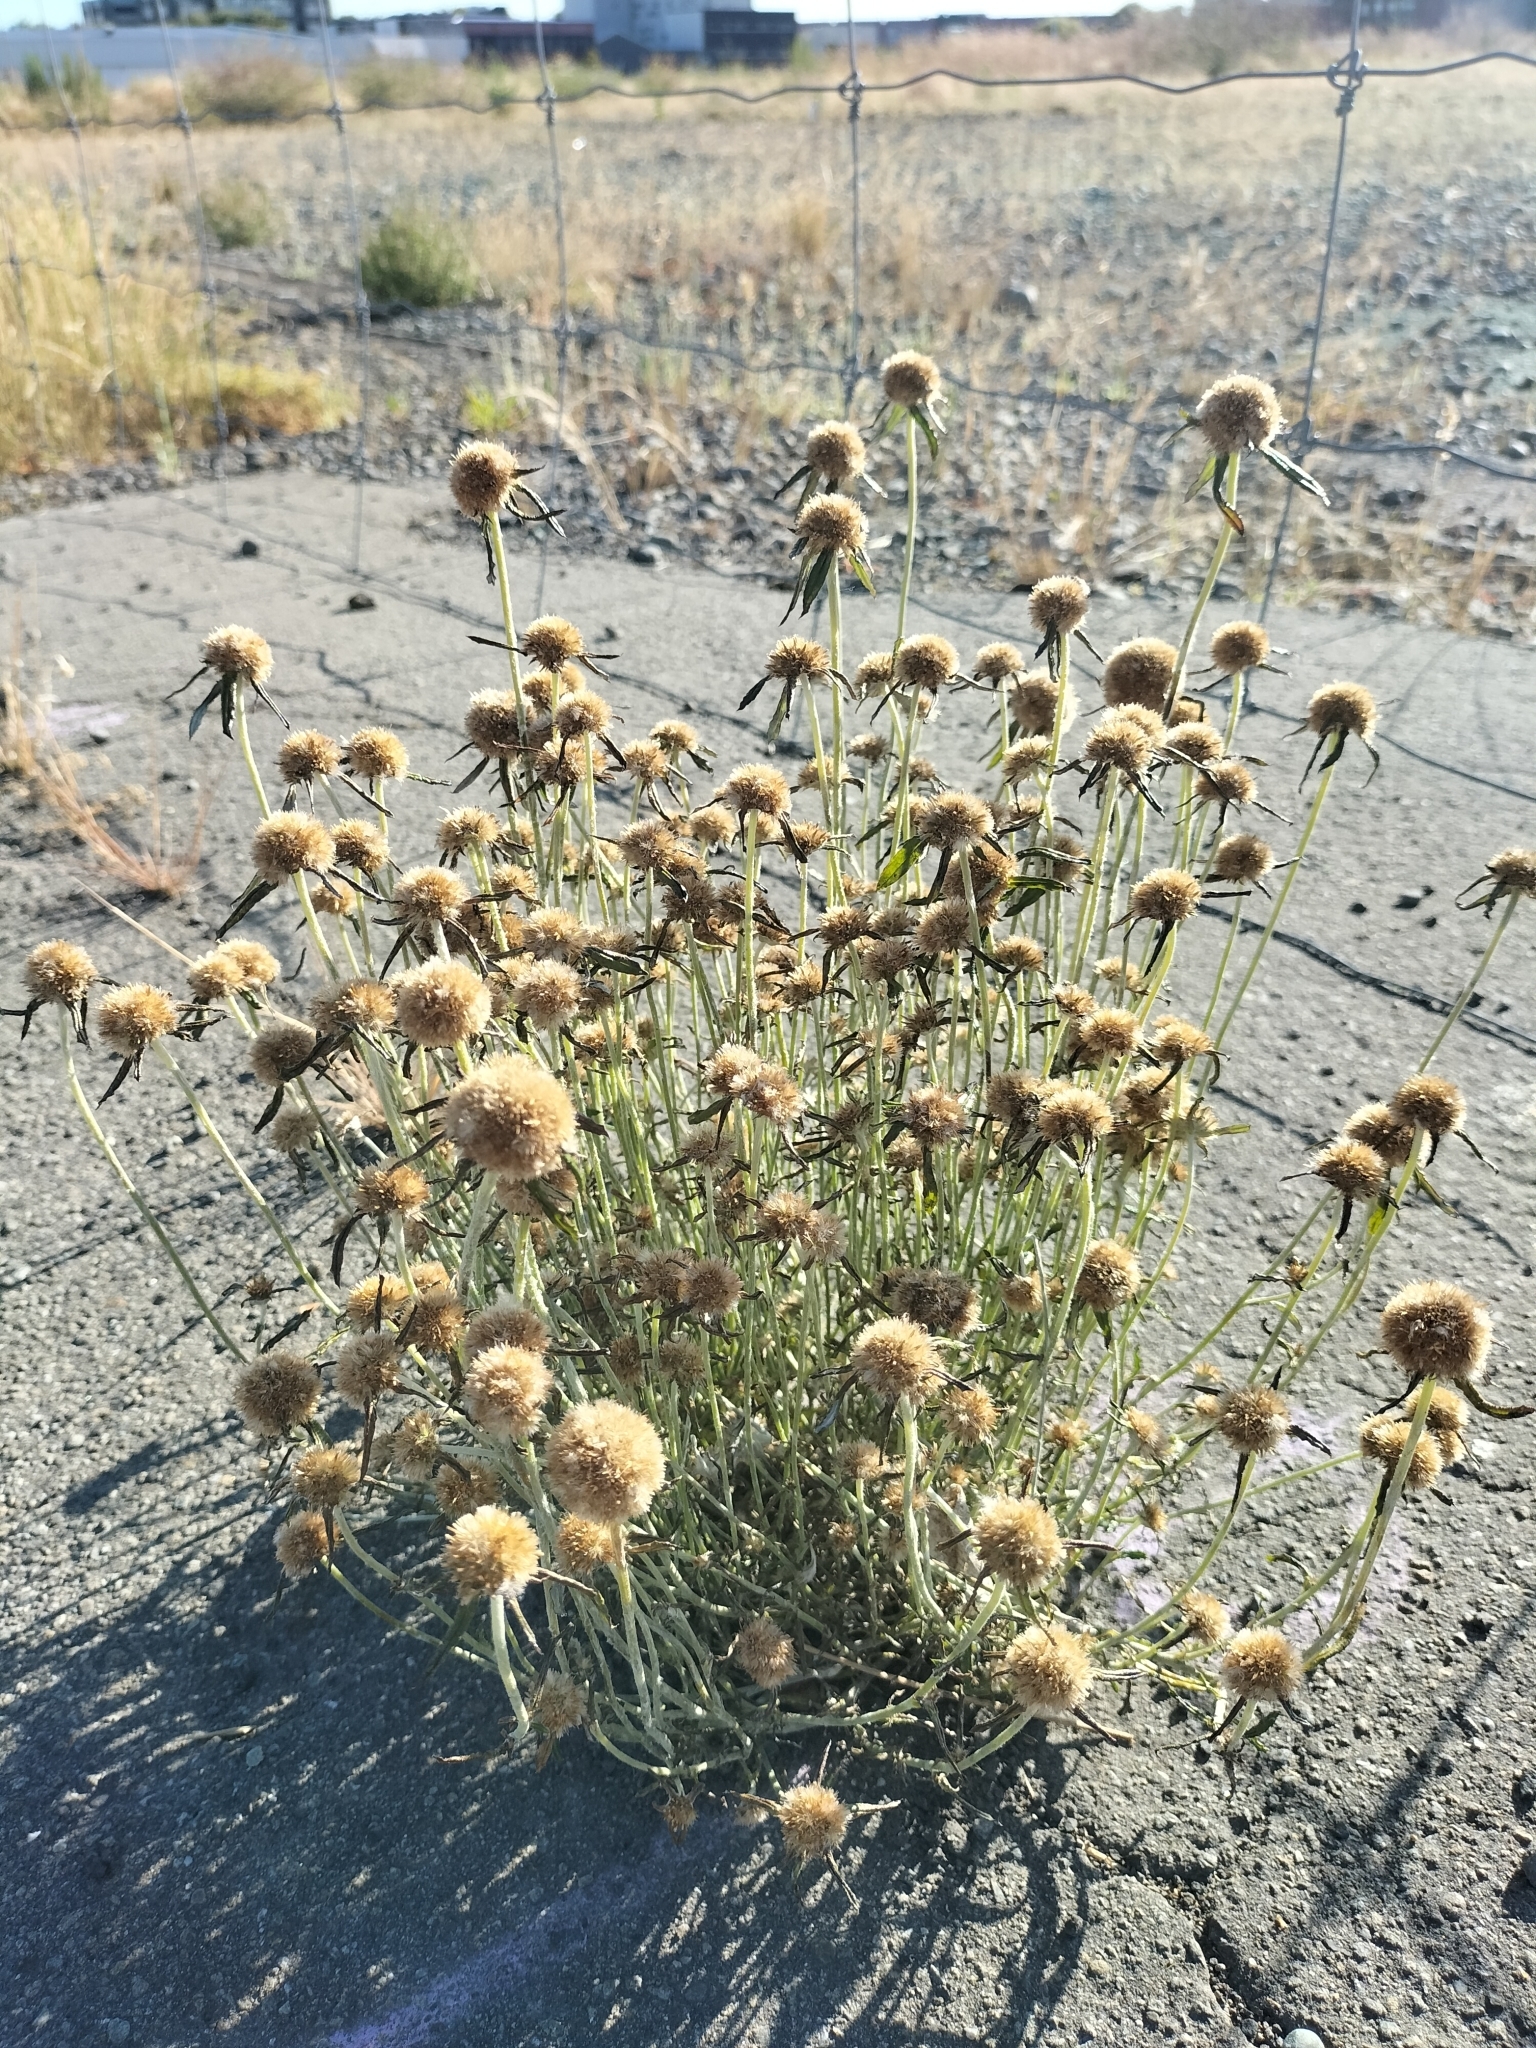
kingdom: Plantae
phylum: Tracheophyta
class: Magnoliopsida
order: Asterales
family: Asteraceae
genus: Euchiton
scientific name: Euchiton sphaericus
